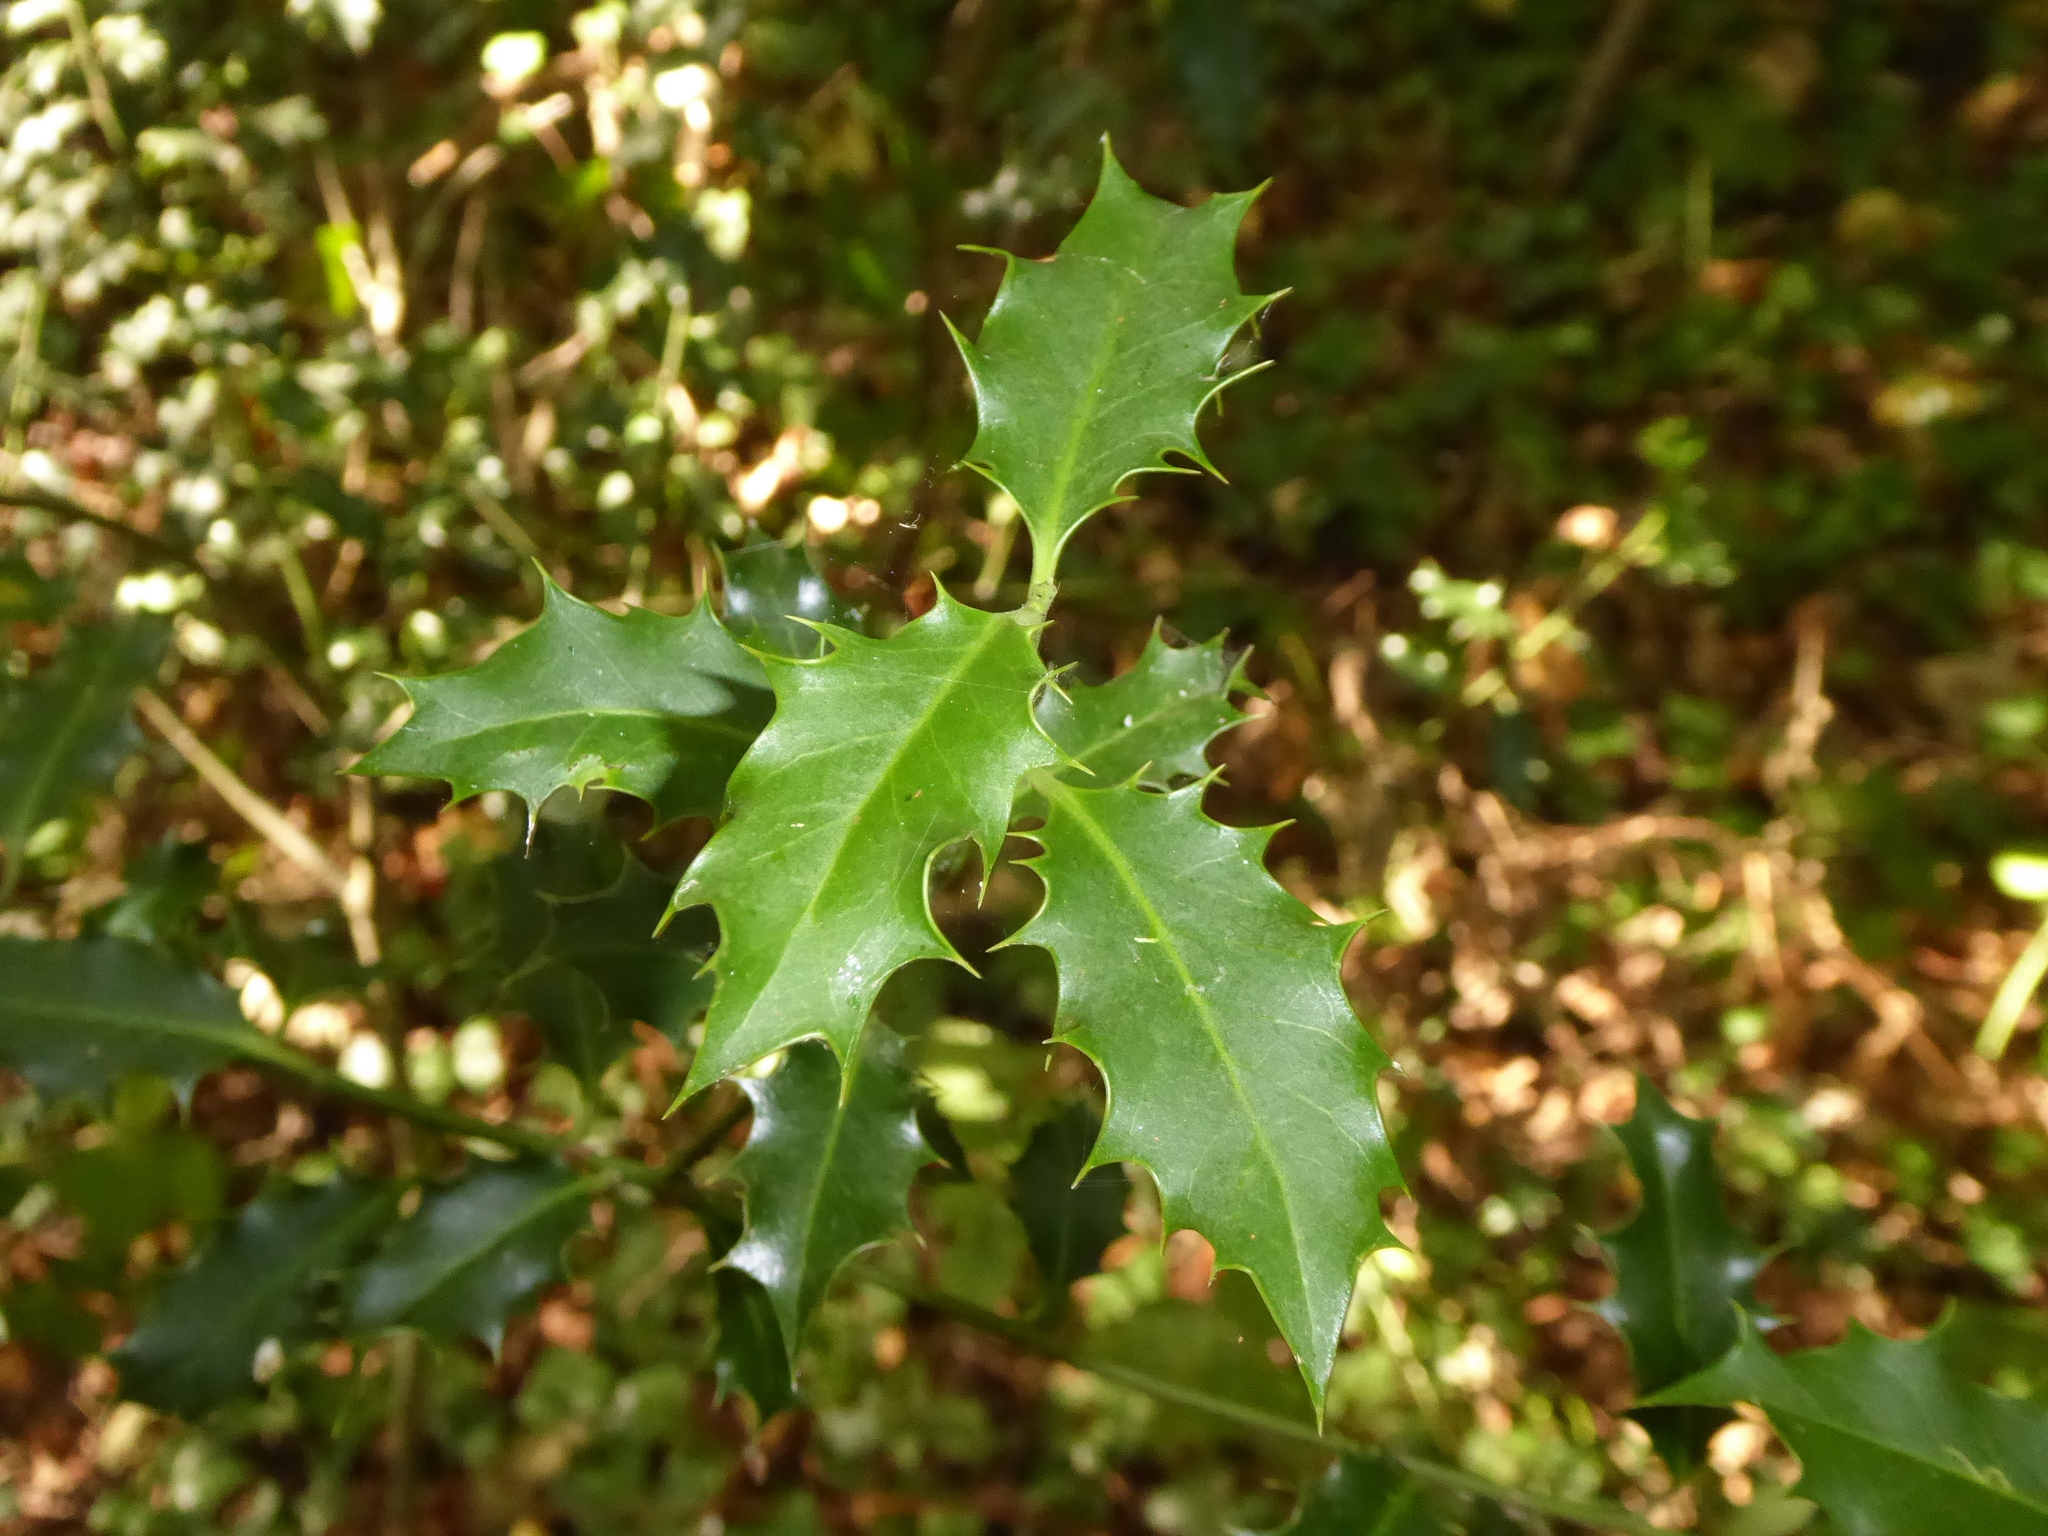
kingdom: Plantae
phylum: Tracheophyta
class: Magnoliopsida
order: Aquifoliales
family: Aquifoliaceae
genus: Ilex
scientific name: Ilex aquifolium
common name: English holly
